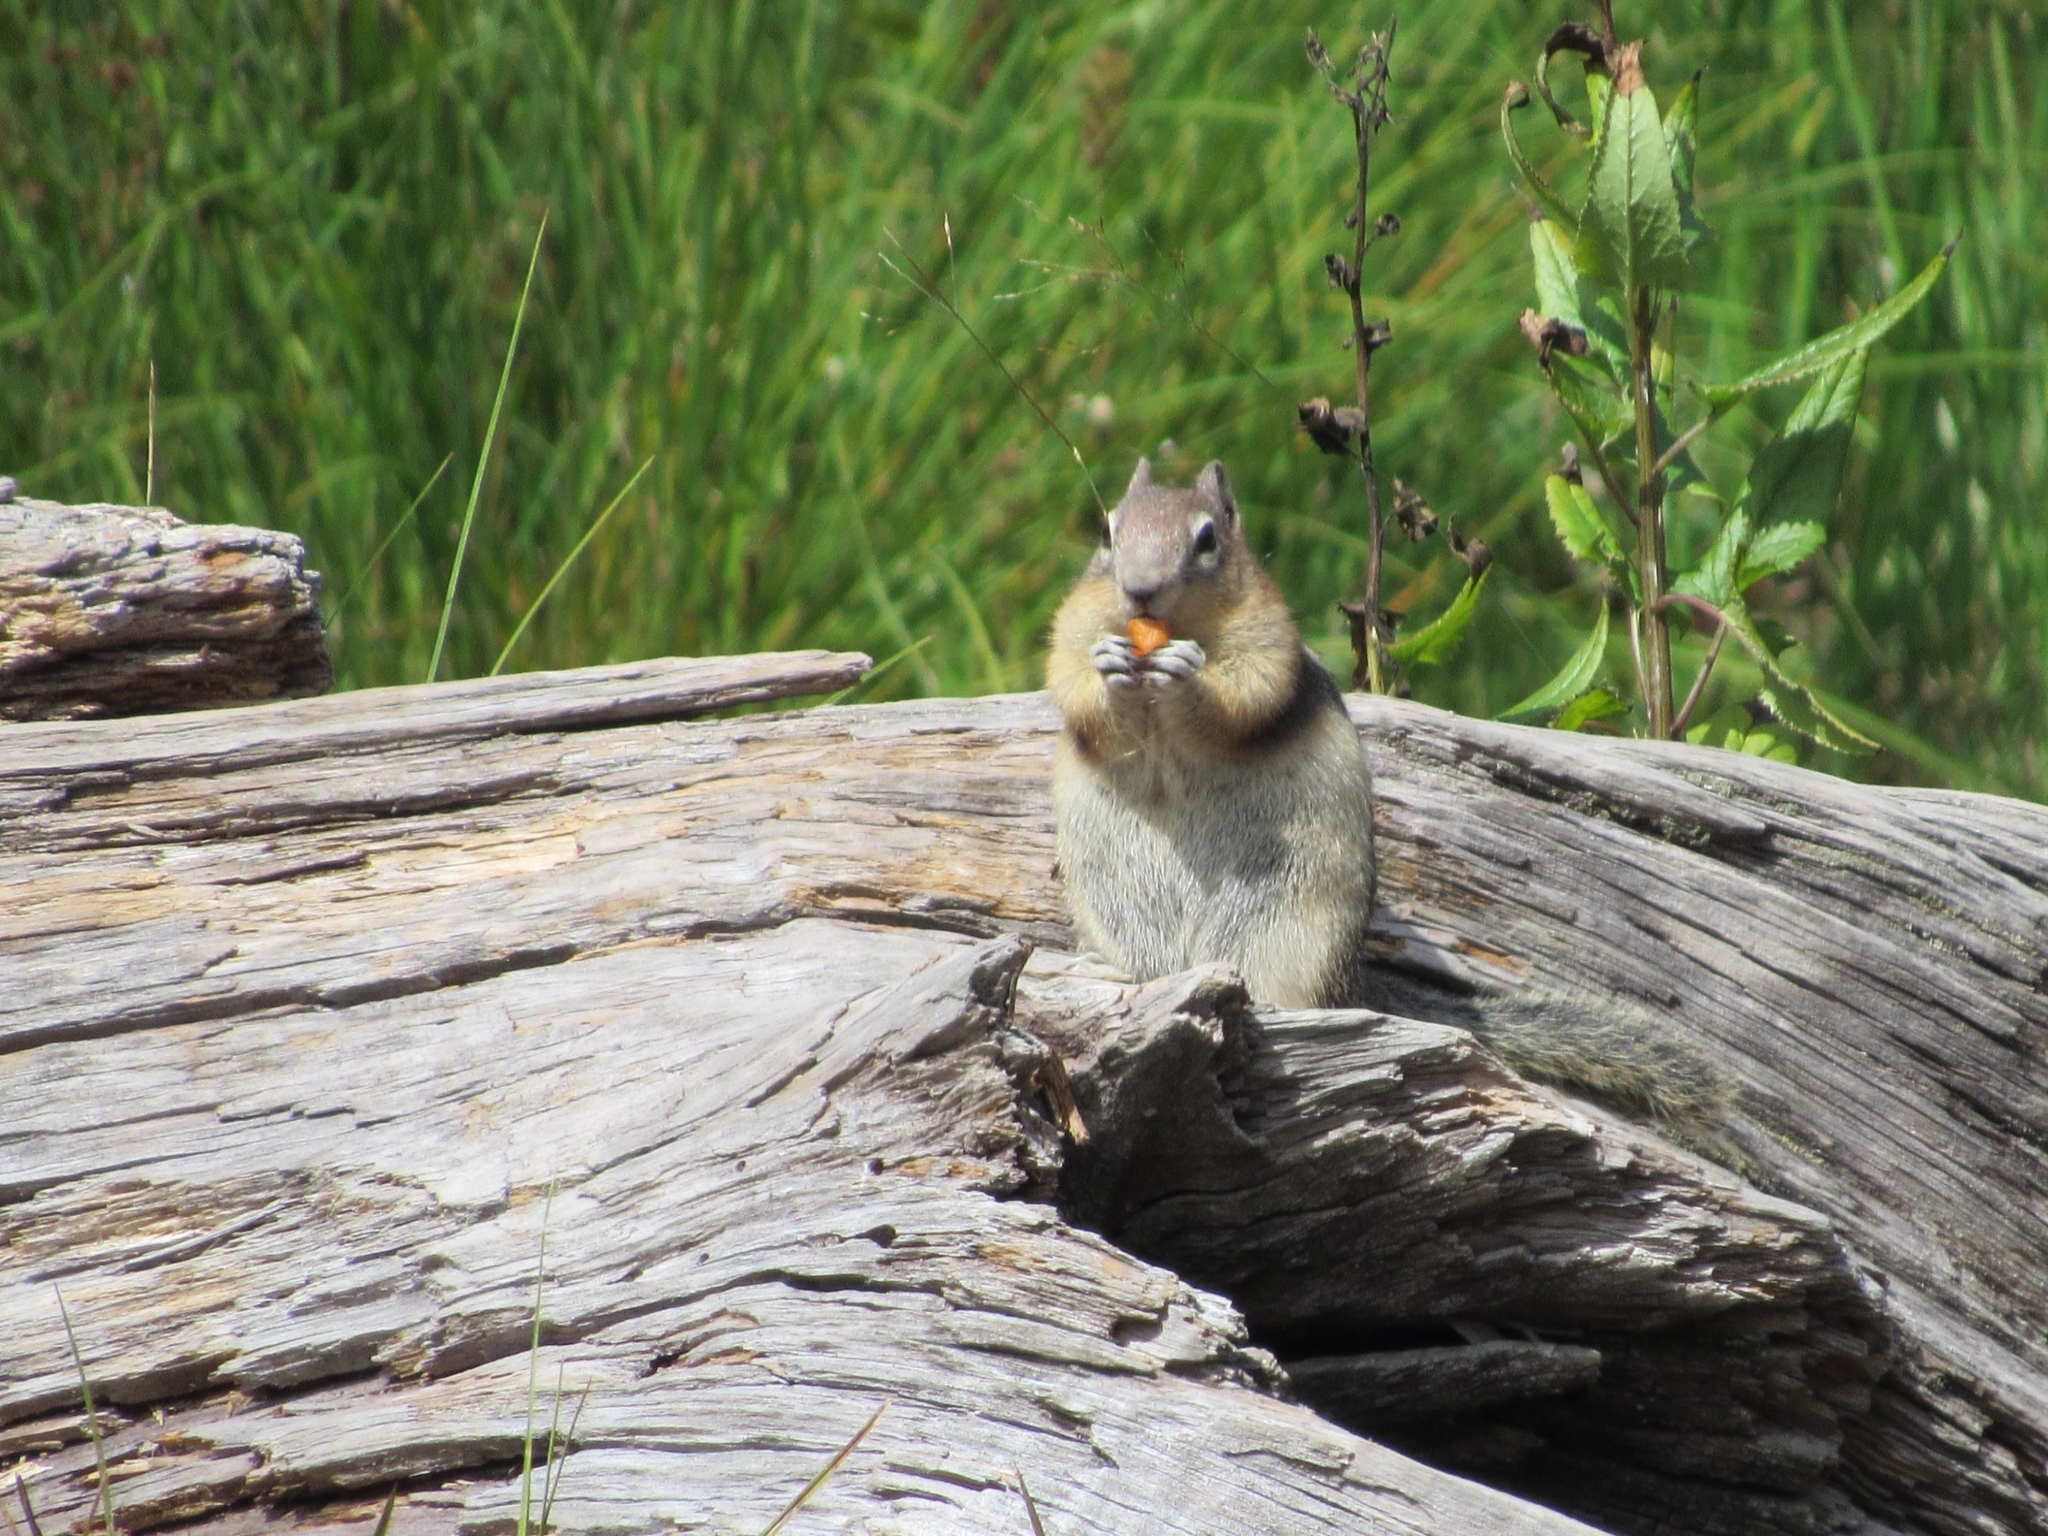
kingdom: Animalia
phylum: Chordata
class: Mammalia
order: Rodentia
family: Sciuridae
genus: Callospermophilus
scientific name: Callospermophilus lateralis
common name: Golden-mantled ground squirrel
